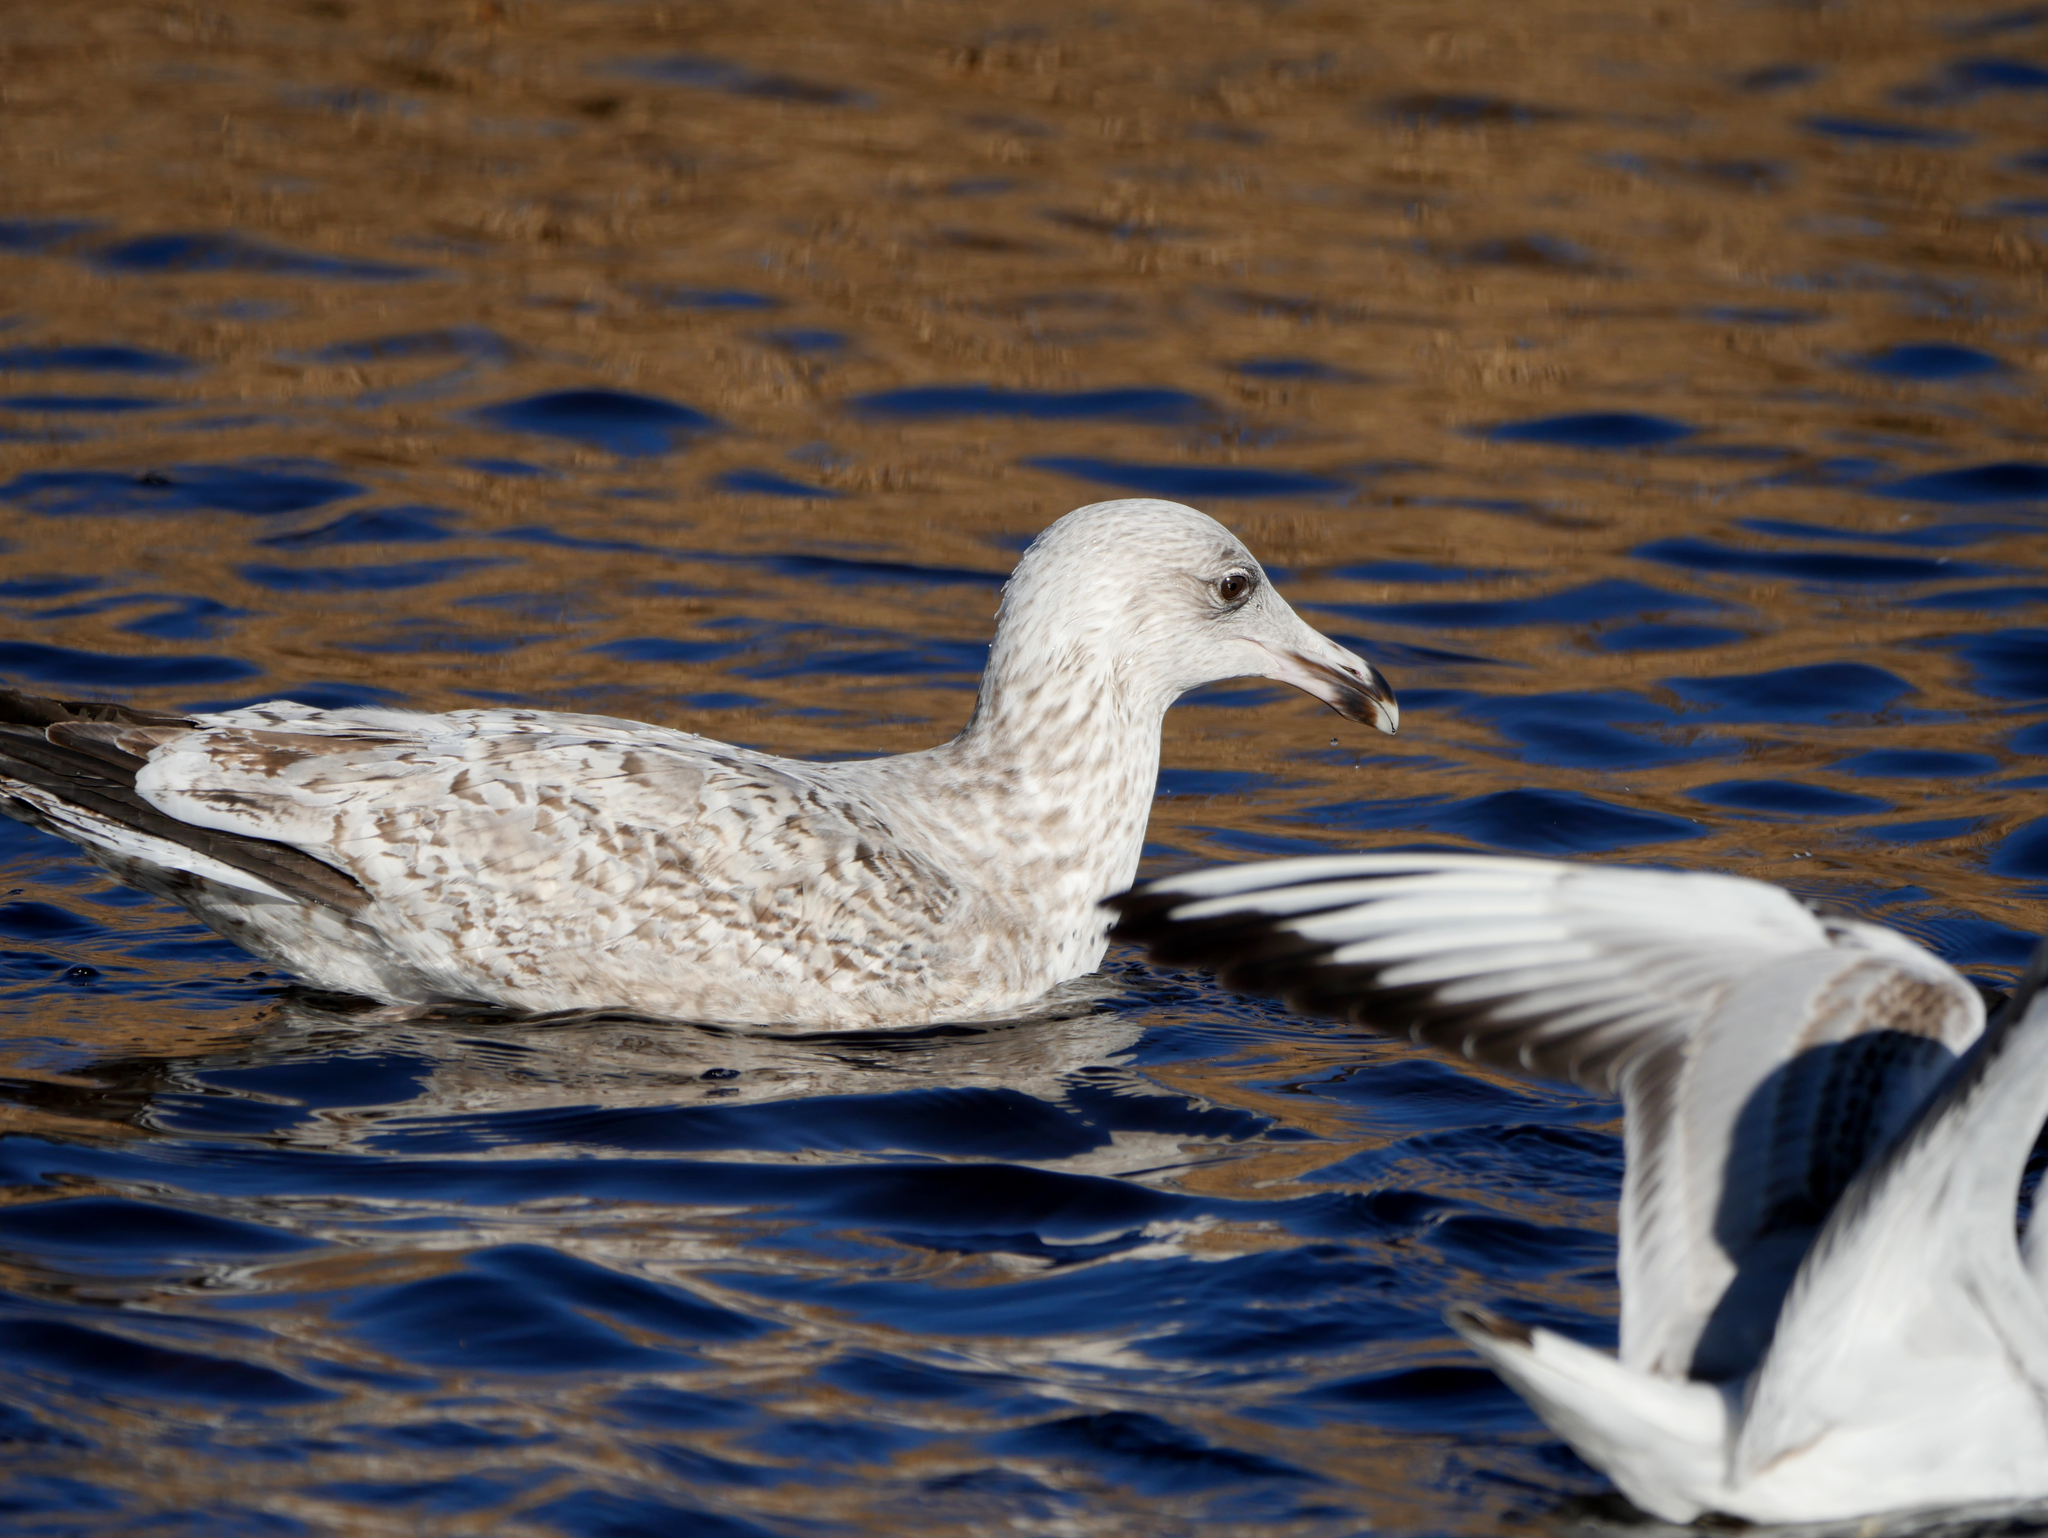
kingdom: Animalia
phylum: Chordata
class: Aves
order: Charadriiformes
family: Laridae
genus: Larus
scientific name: Larus argentatus
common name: Herring gull
